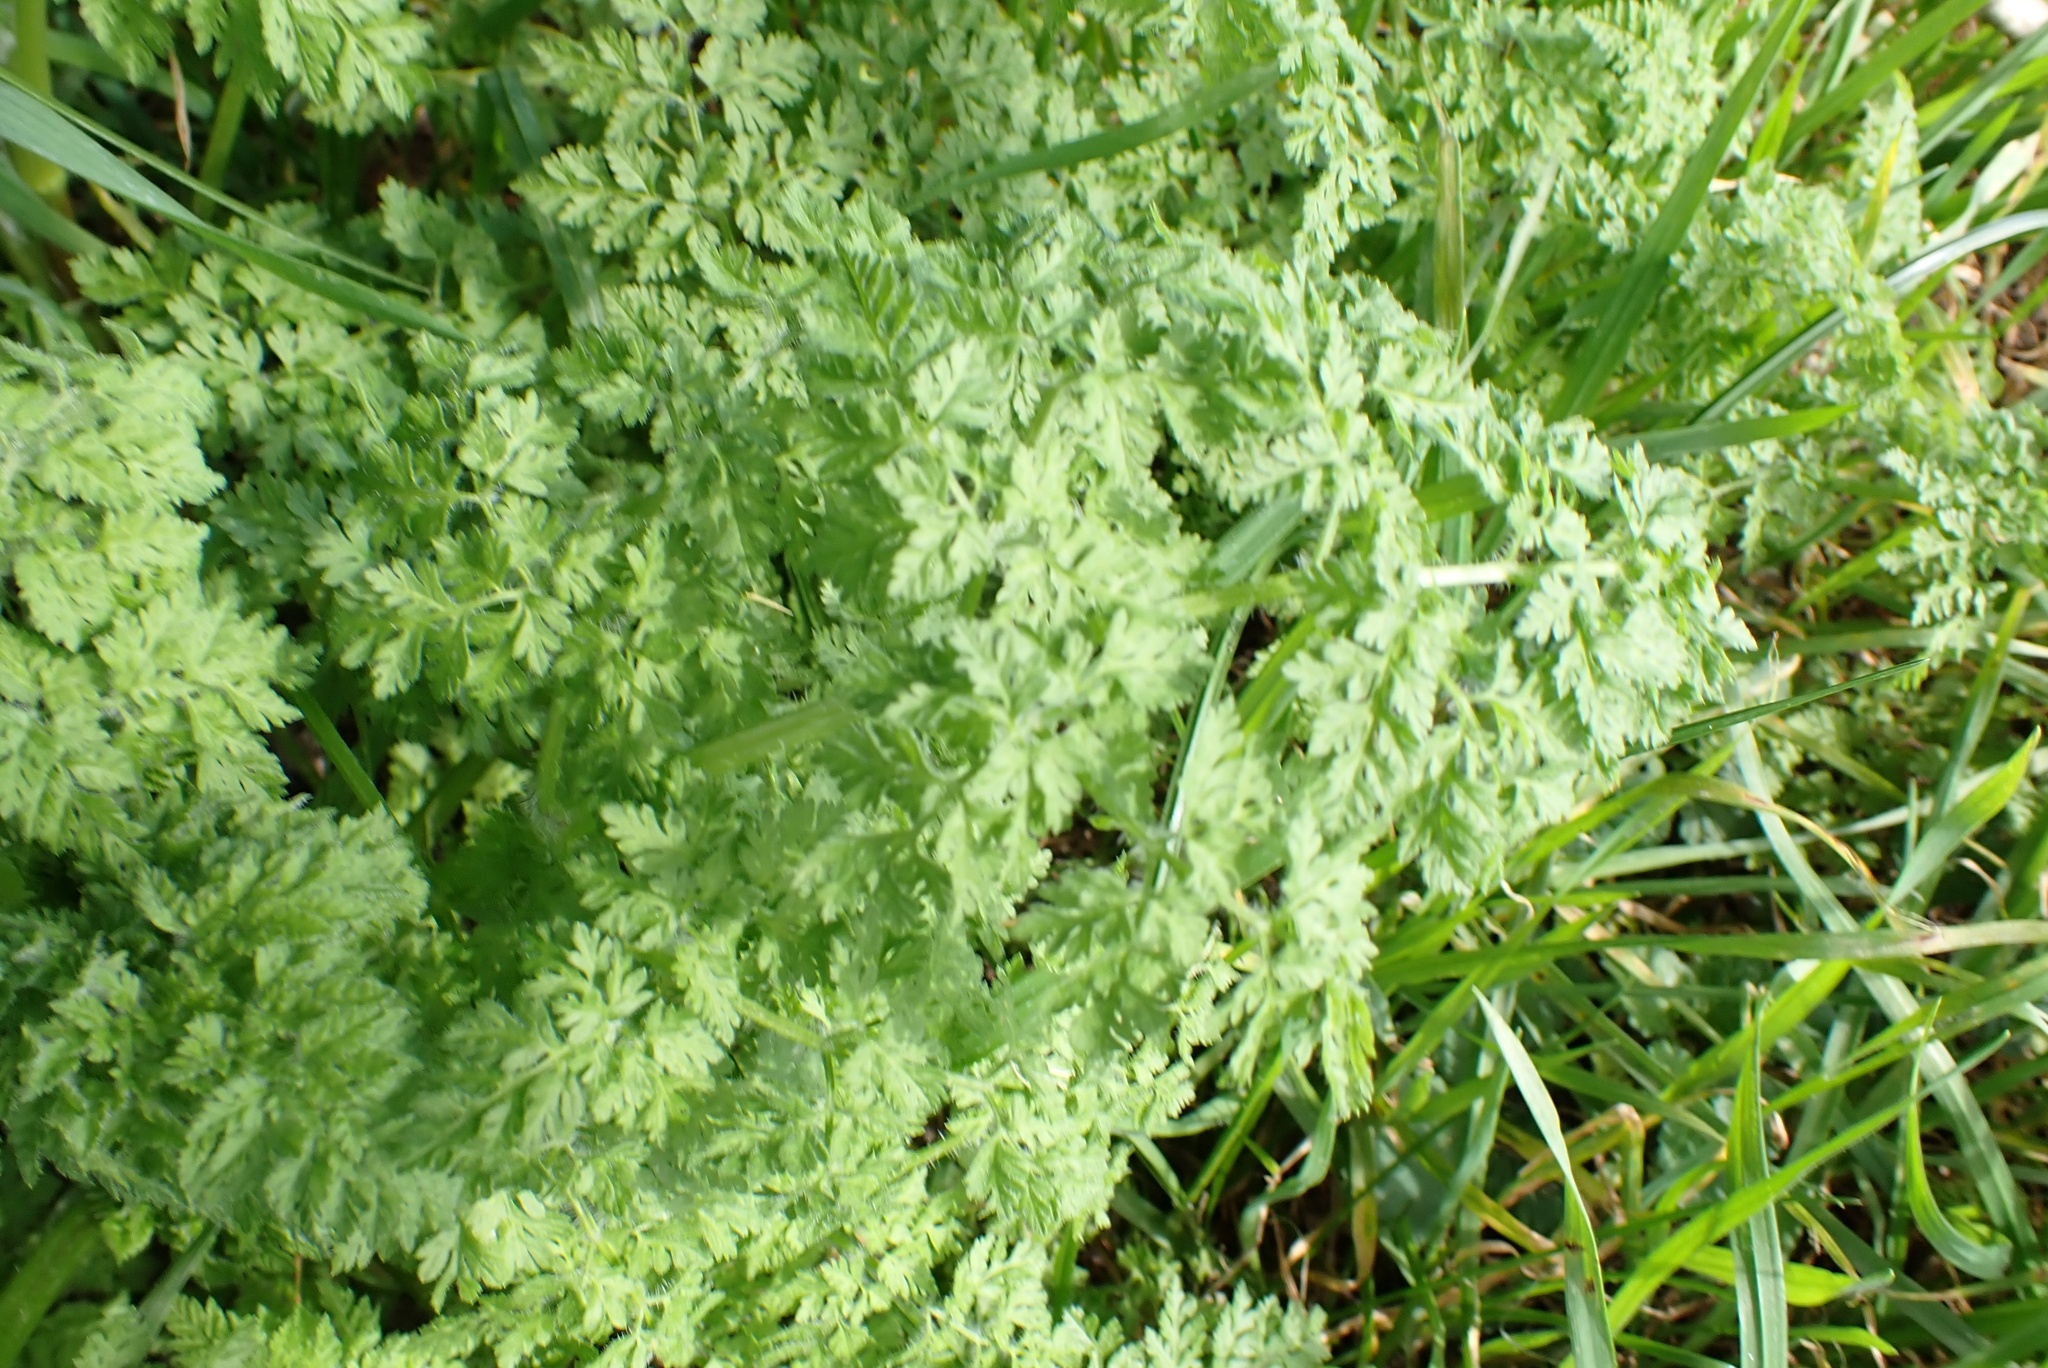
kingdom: Plantae
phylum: Tracheophyta
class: Magnoliopsida
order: Apiales
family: Apiaceae
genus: Anthriscus
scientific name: Anthriscus caucalis
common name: Bur chervil
